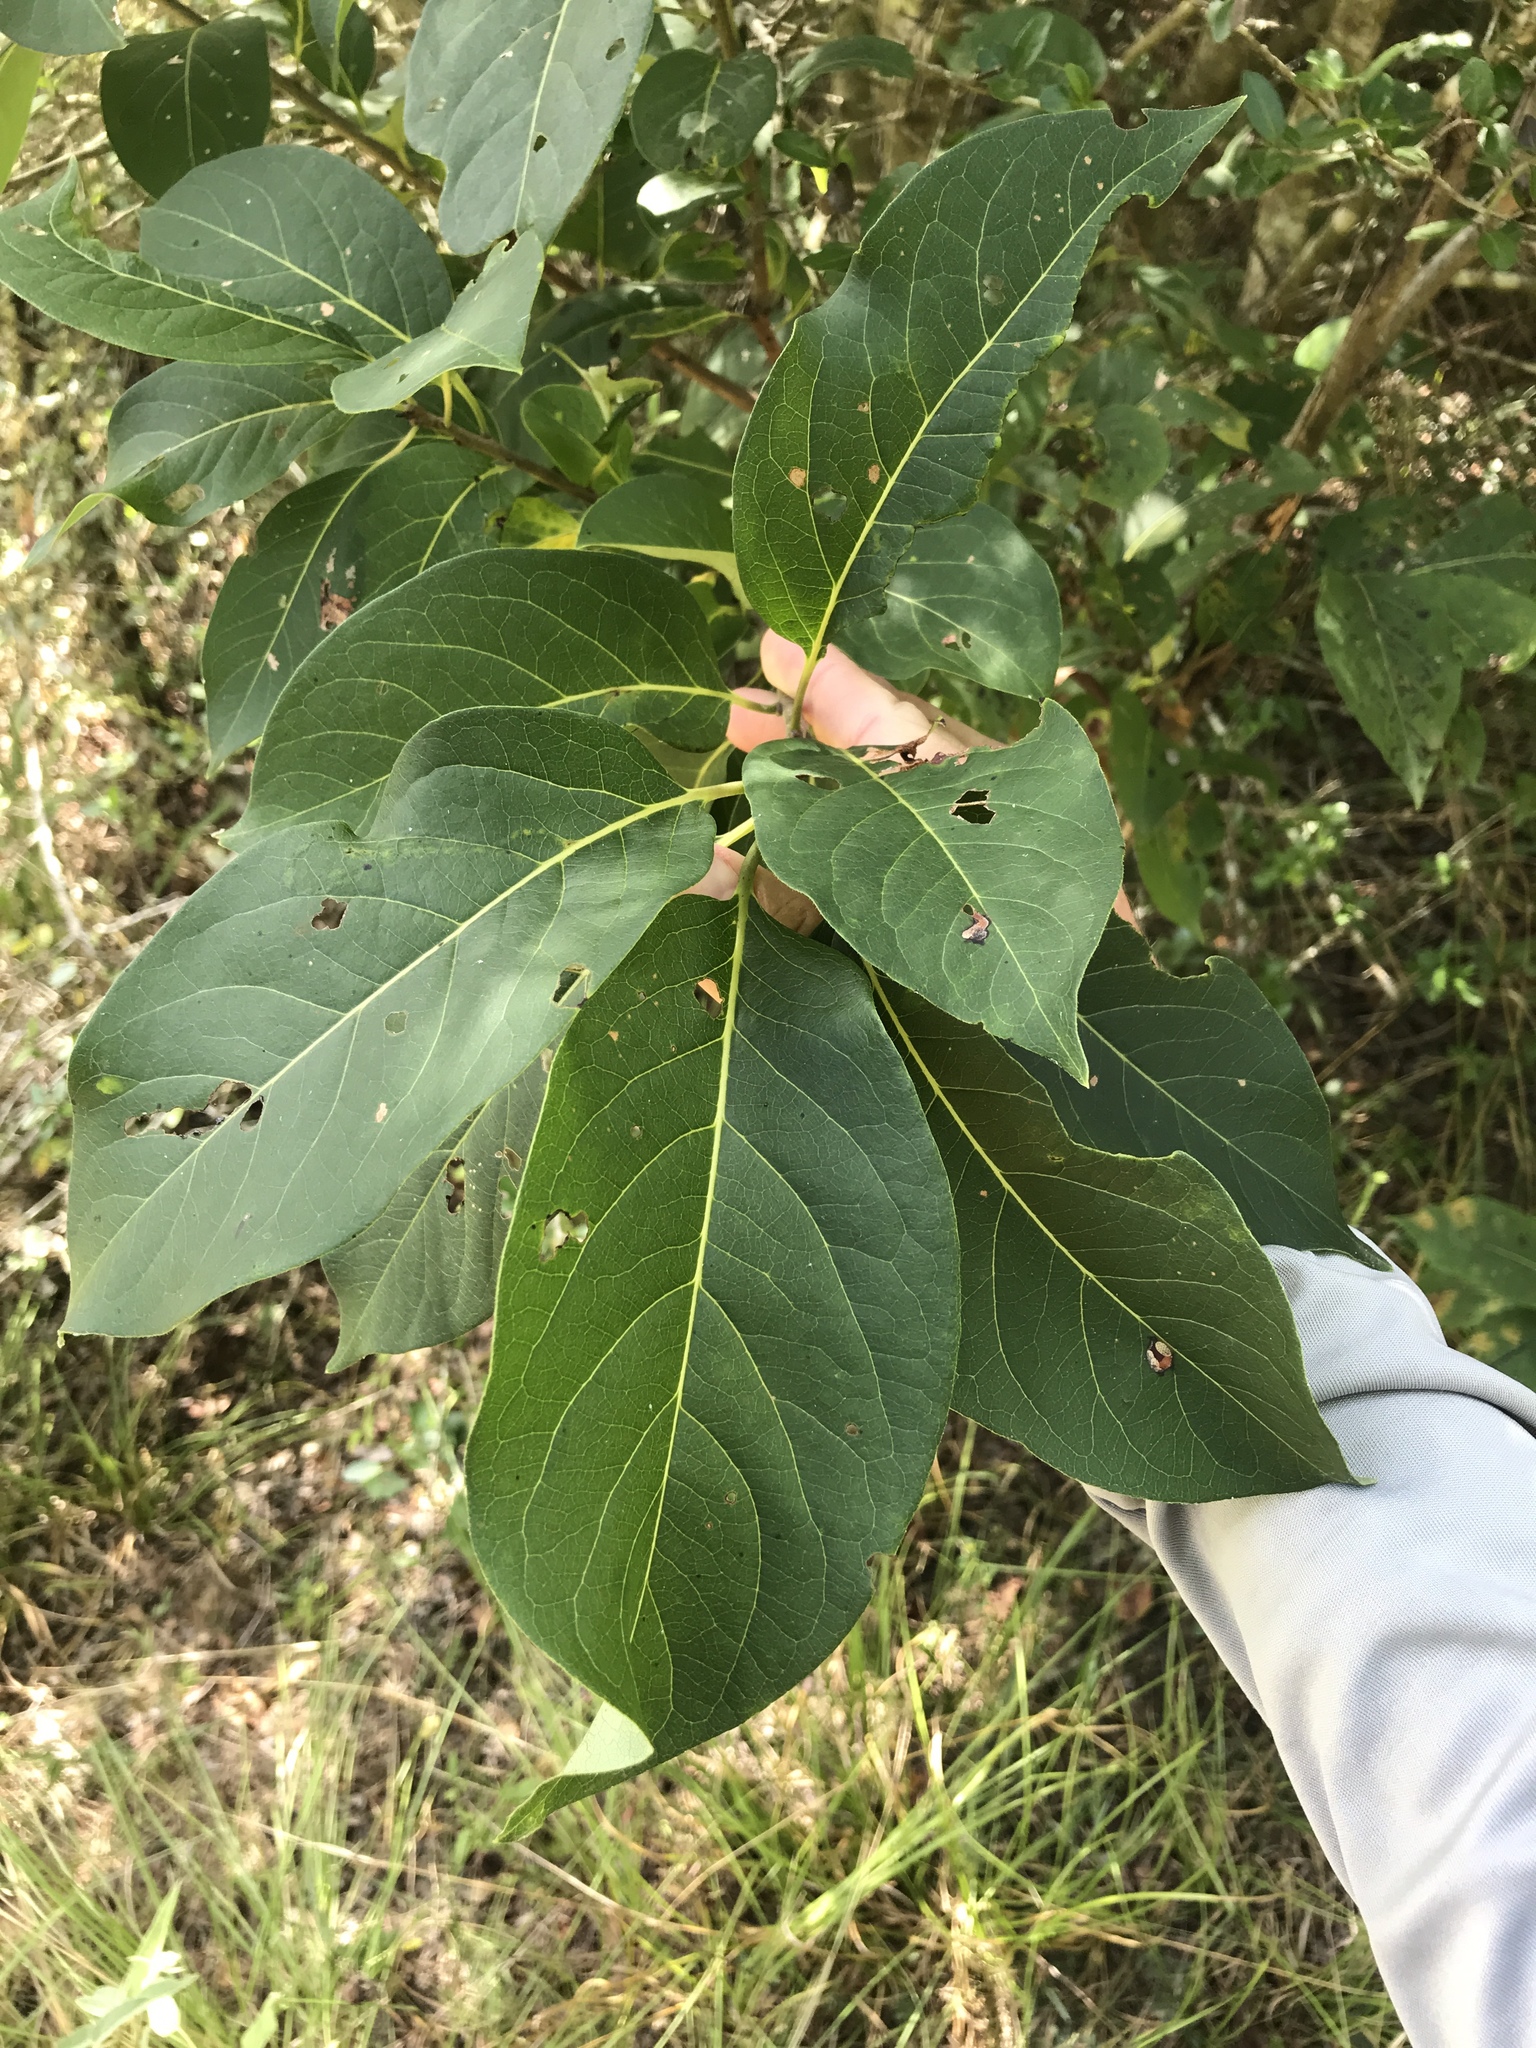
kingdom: Plantae
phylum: Tracheophyta
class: Magnoliopsida
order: Ericales
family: Ebenaceae
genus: Diospyros
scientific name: Diospyros virginiana
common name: Persimmon
